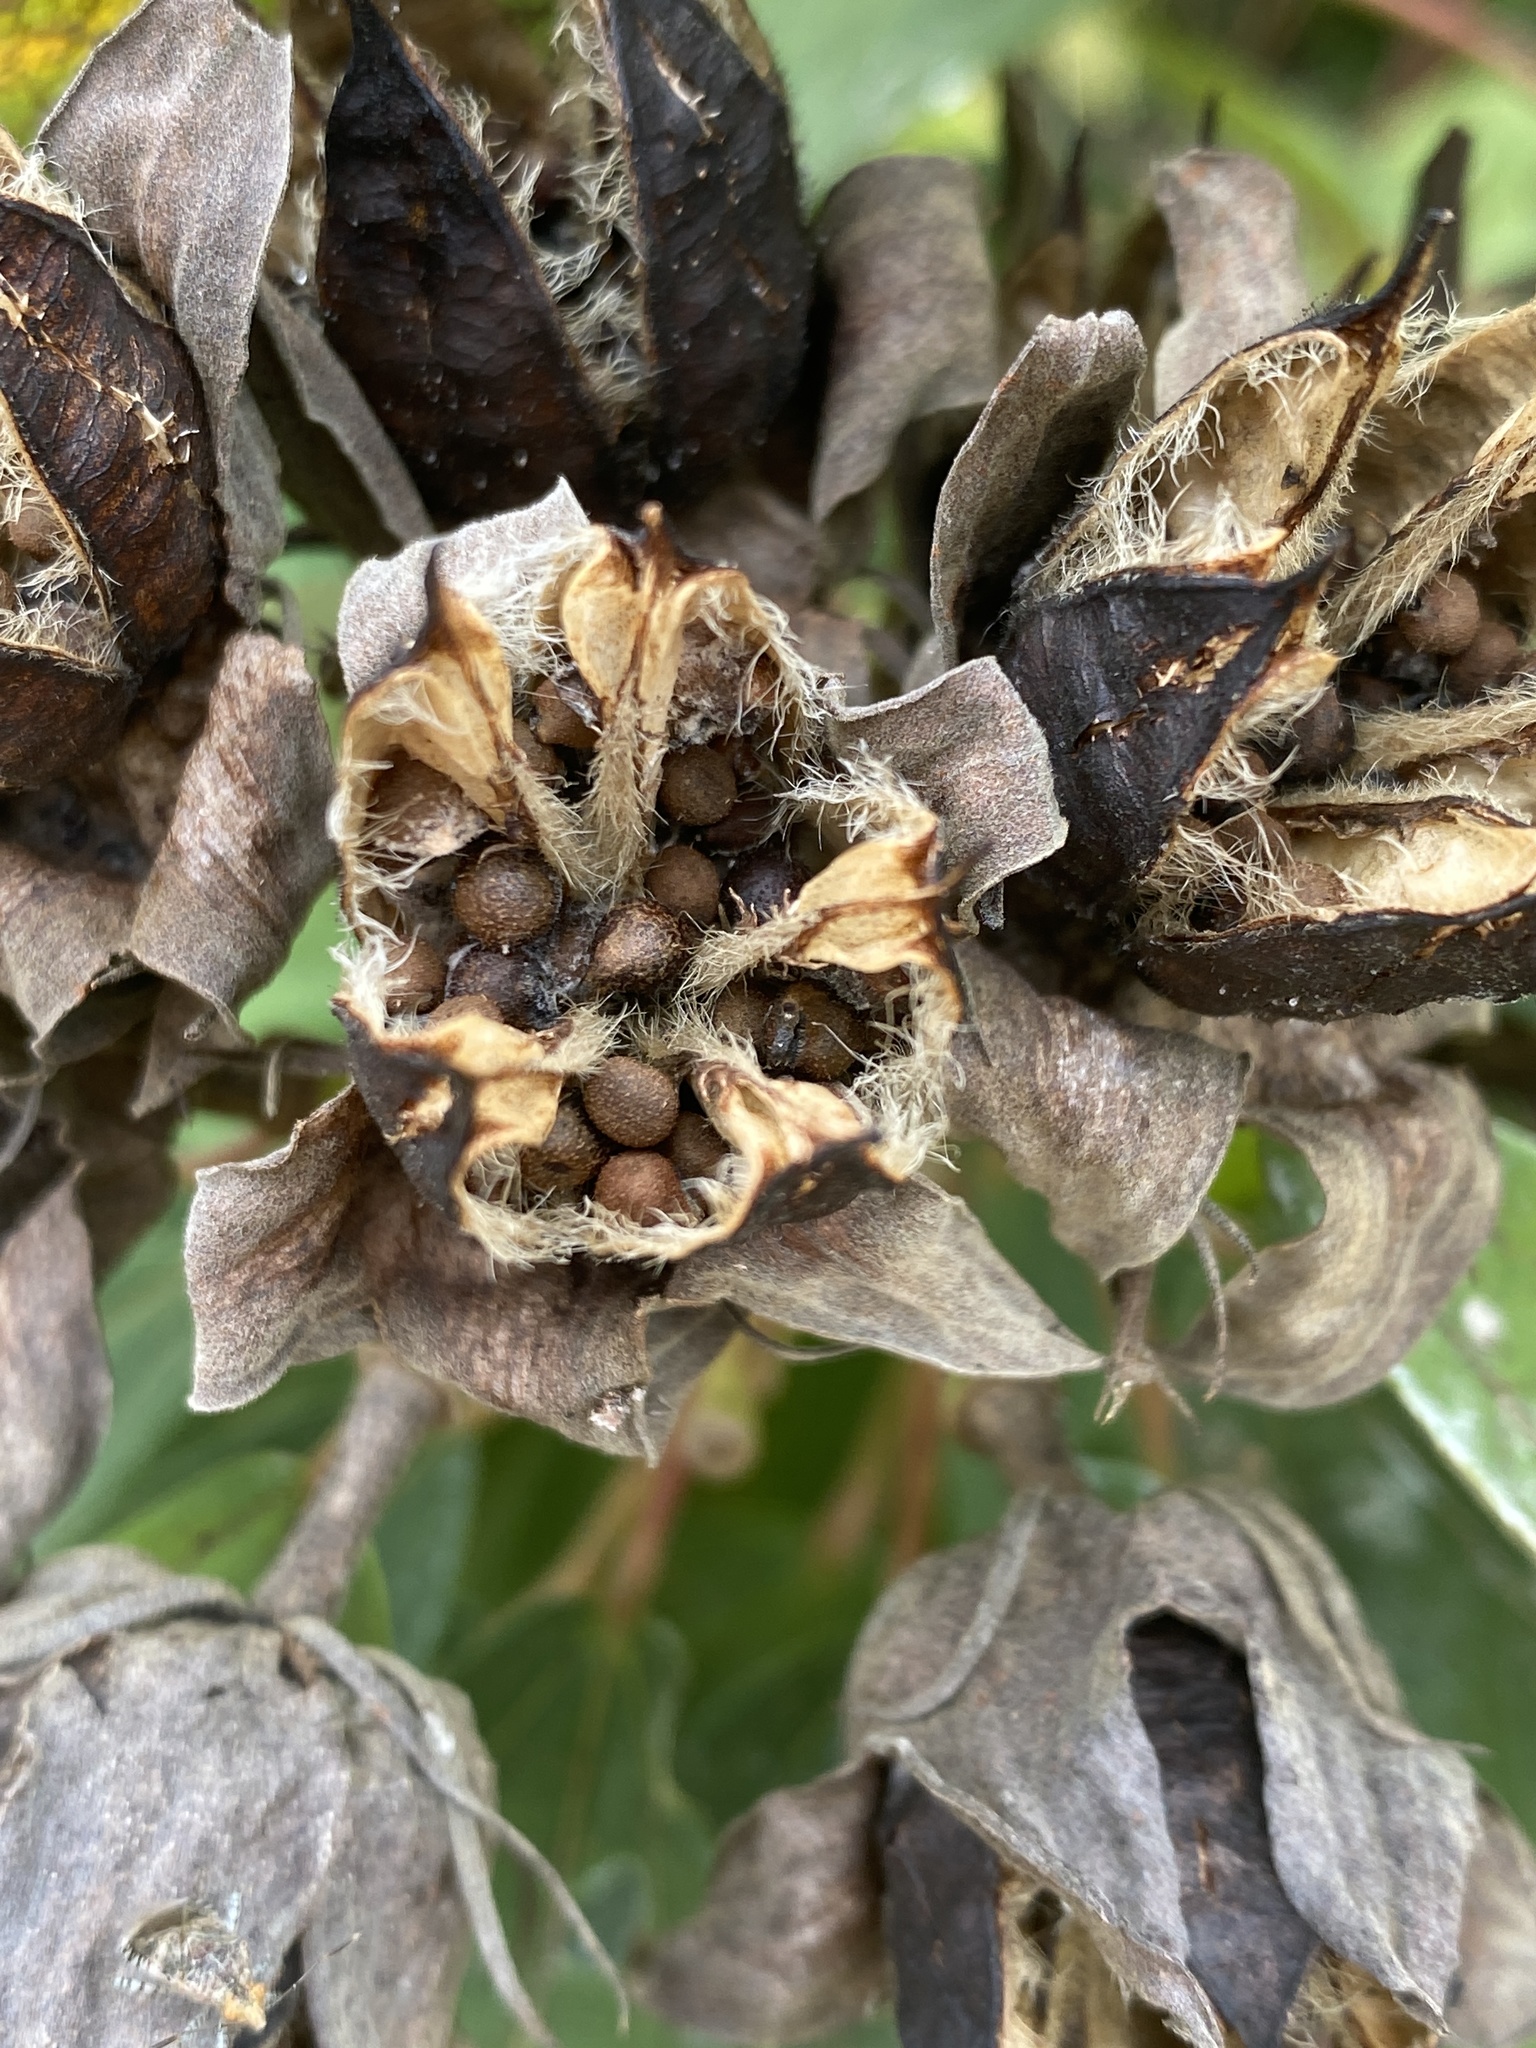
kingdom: Plantae
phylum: Tracheophyta
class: Magnoliopsida
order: Malvales
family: Malvaceae
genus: Hibiscus
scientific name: Hibiscus moscheutos
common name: Common rose-mallow
